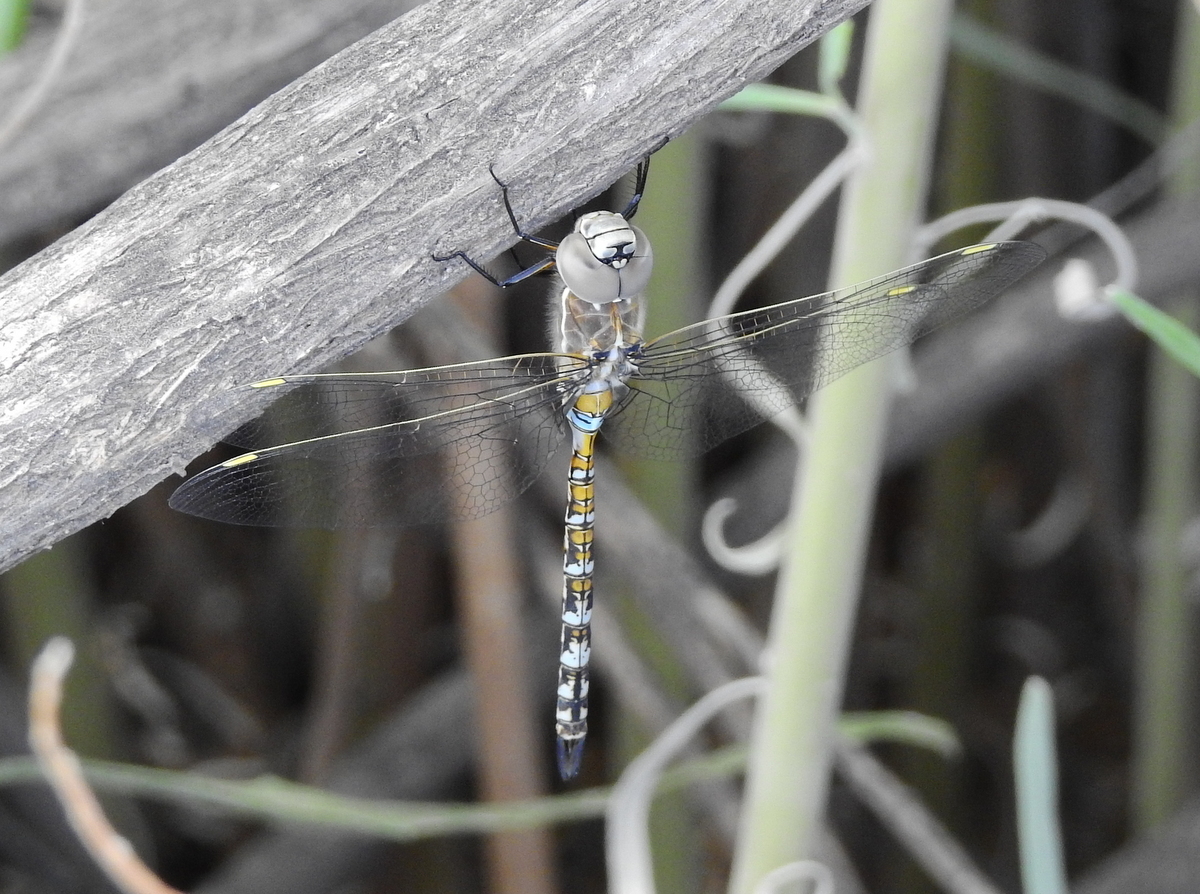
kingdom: Animalia
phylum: Arthropoda
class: Insecta
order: Odonata
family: Aeshnidae
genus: Rhionaeschna
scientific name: Rhionaeschna absoluta
